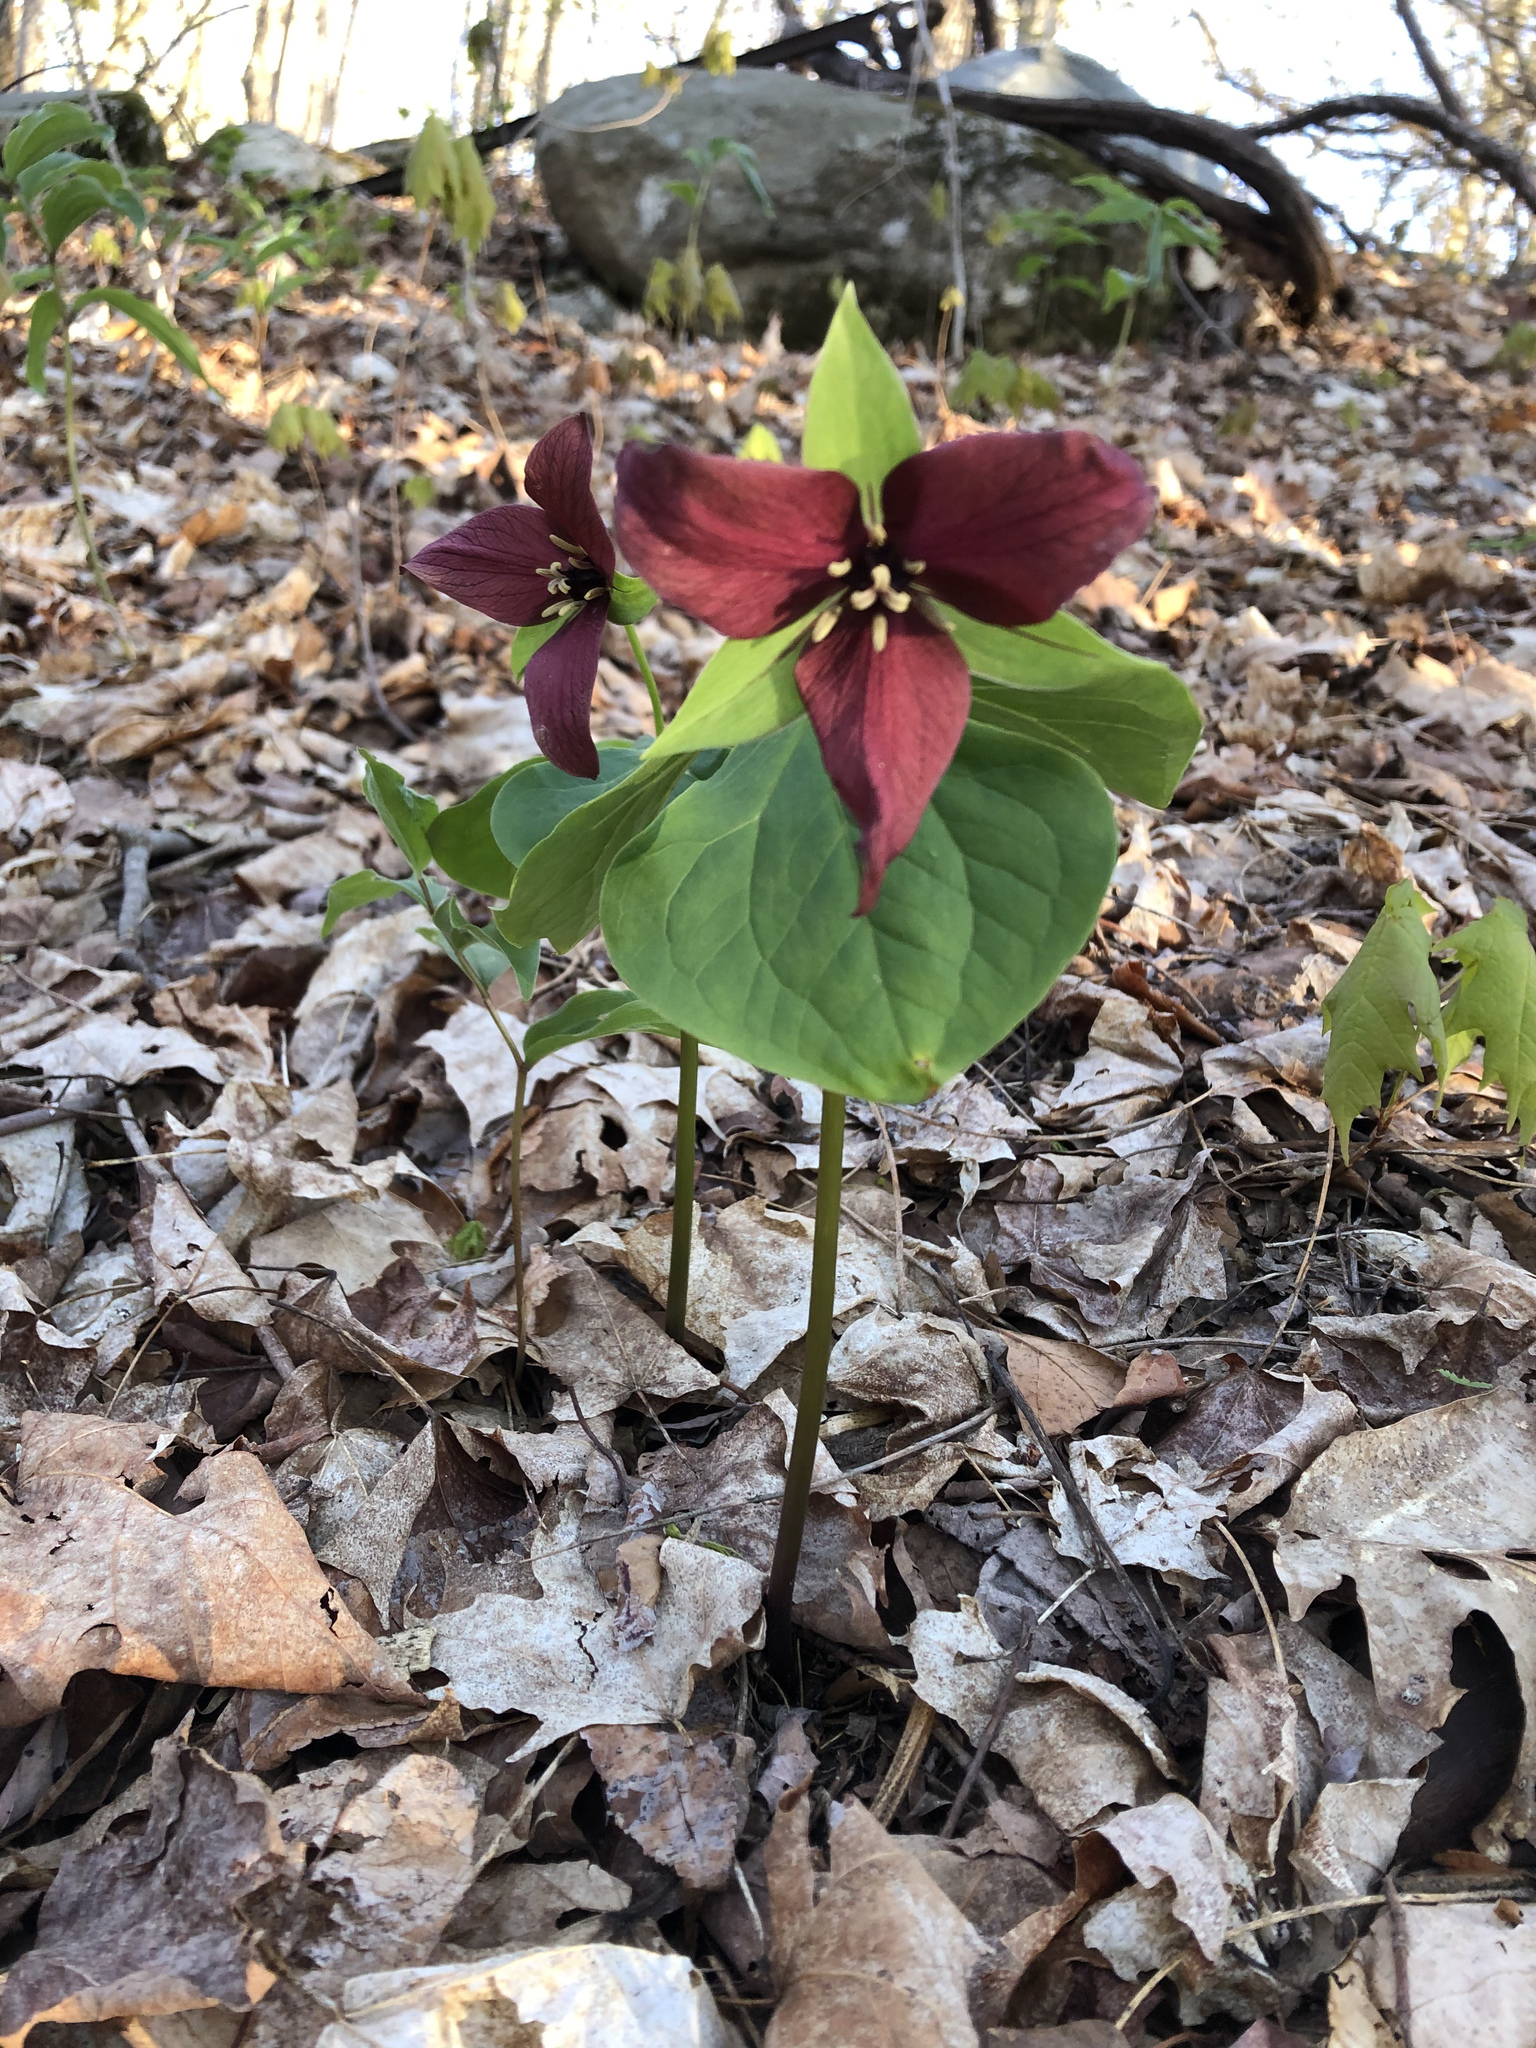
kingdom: Plantae
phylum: Tracheophyta
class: Liliopsida
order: Liliales
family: Melanthiaceae
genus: Trillium
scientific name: Trillium erectum
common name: Purple trillium
